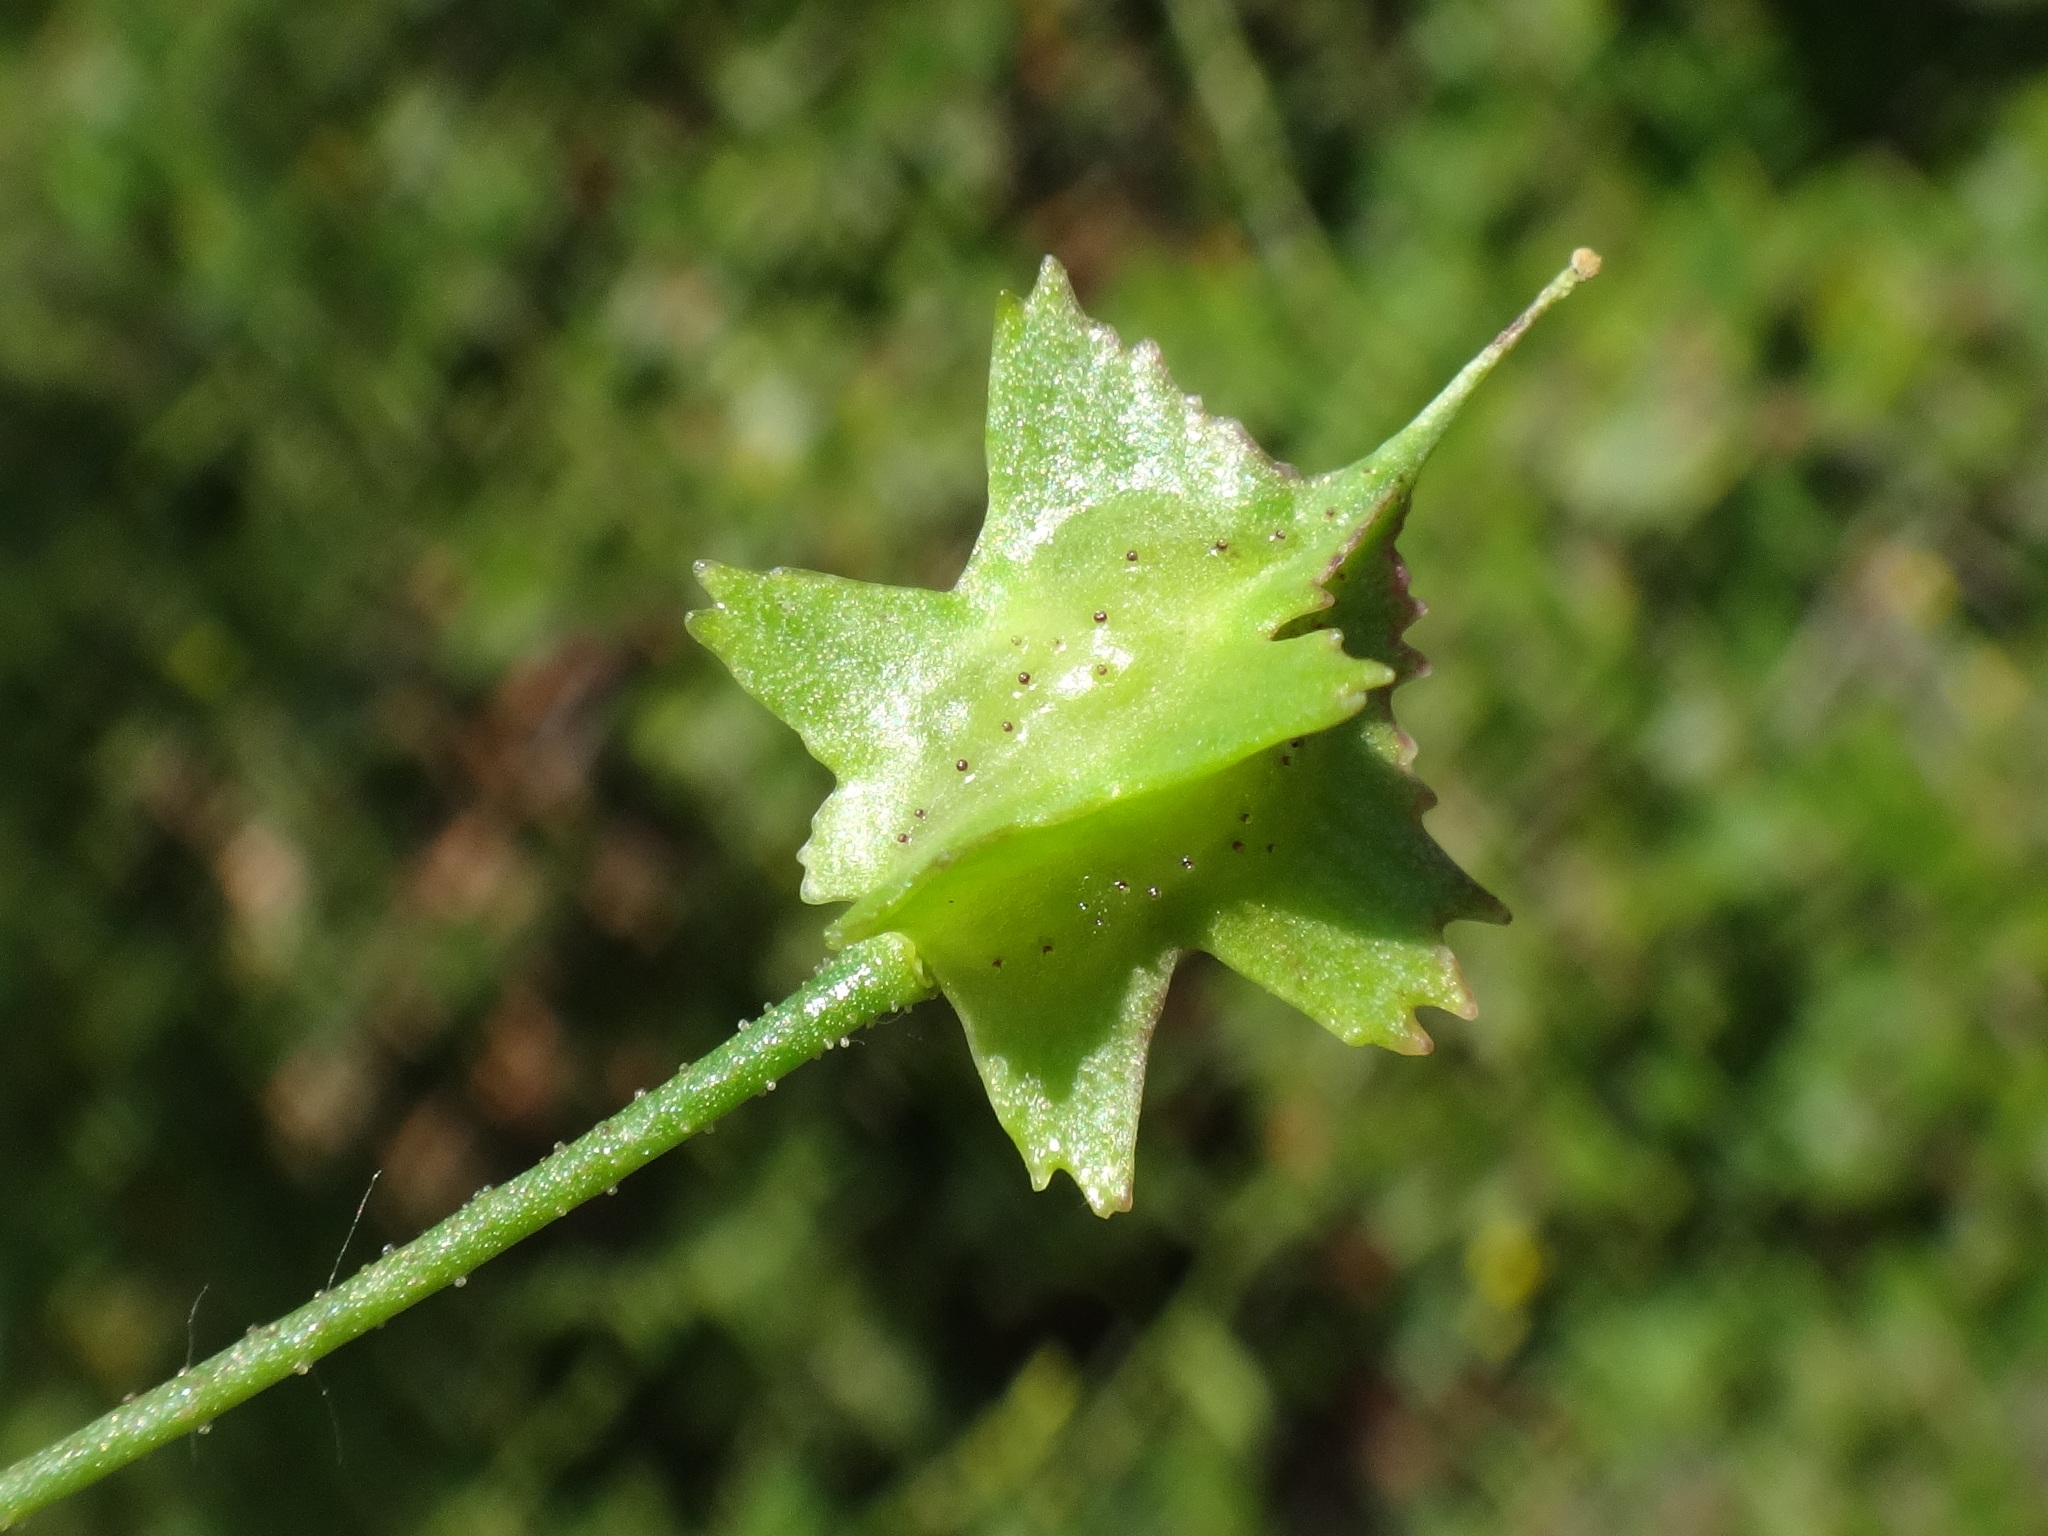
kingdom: Plantae
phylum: Tracheophyta
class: Magnoliopsida
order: Brassicales
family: Brassicaceae
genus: Bunias
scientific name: Bunias erucago
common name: Southern warty-cabbage
